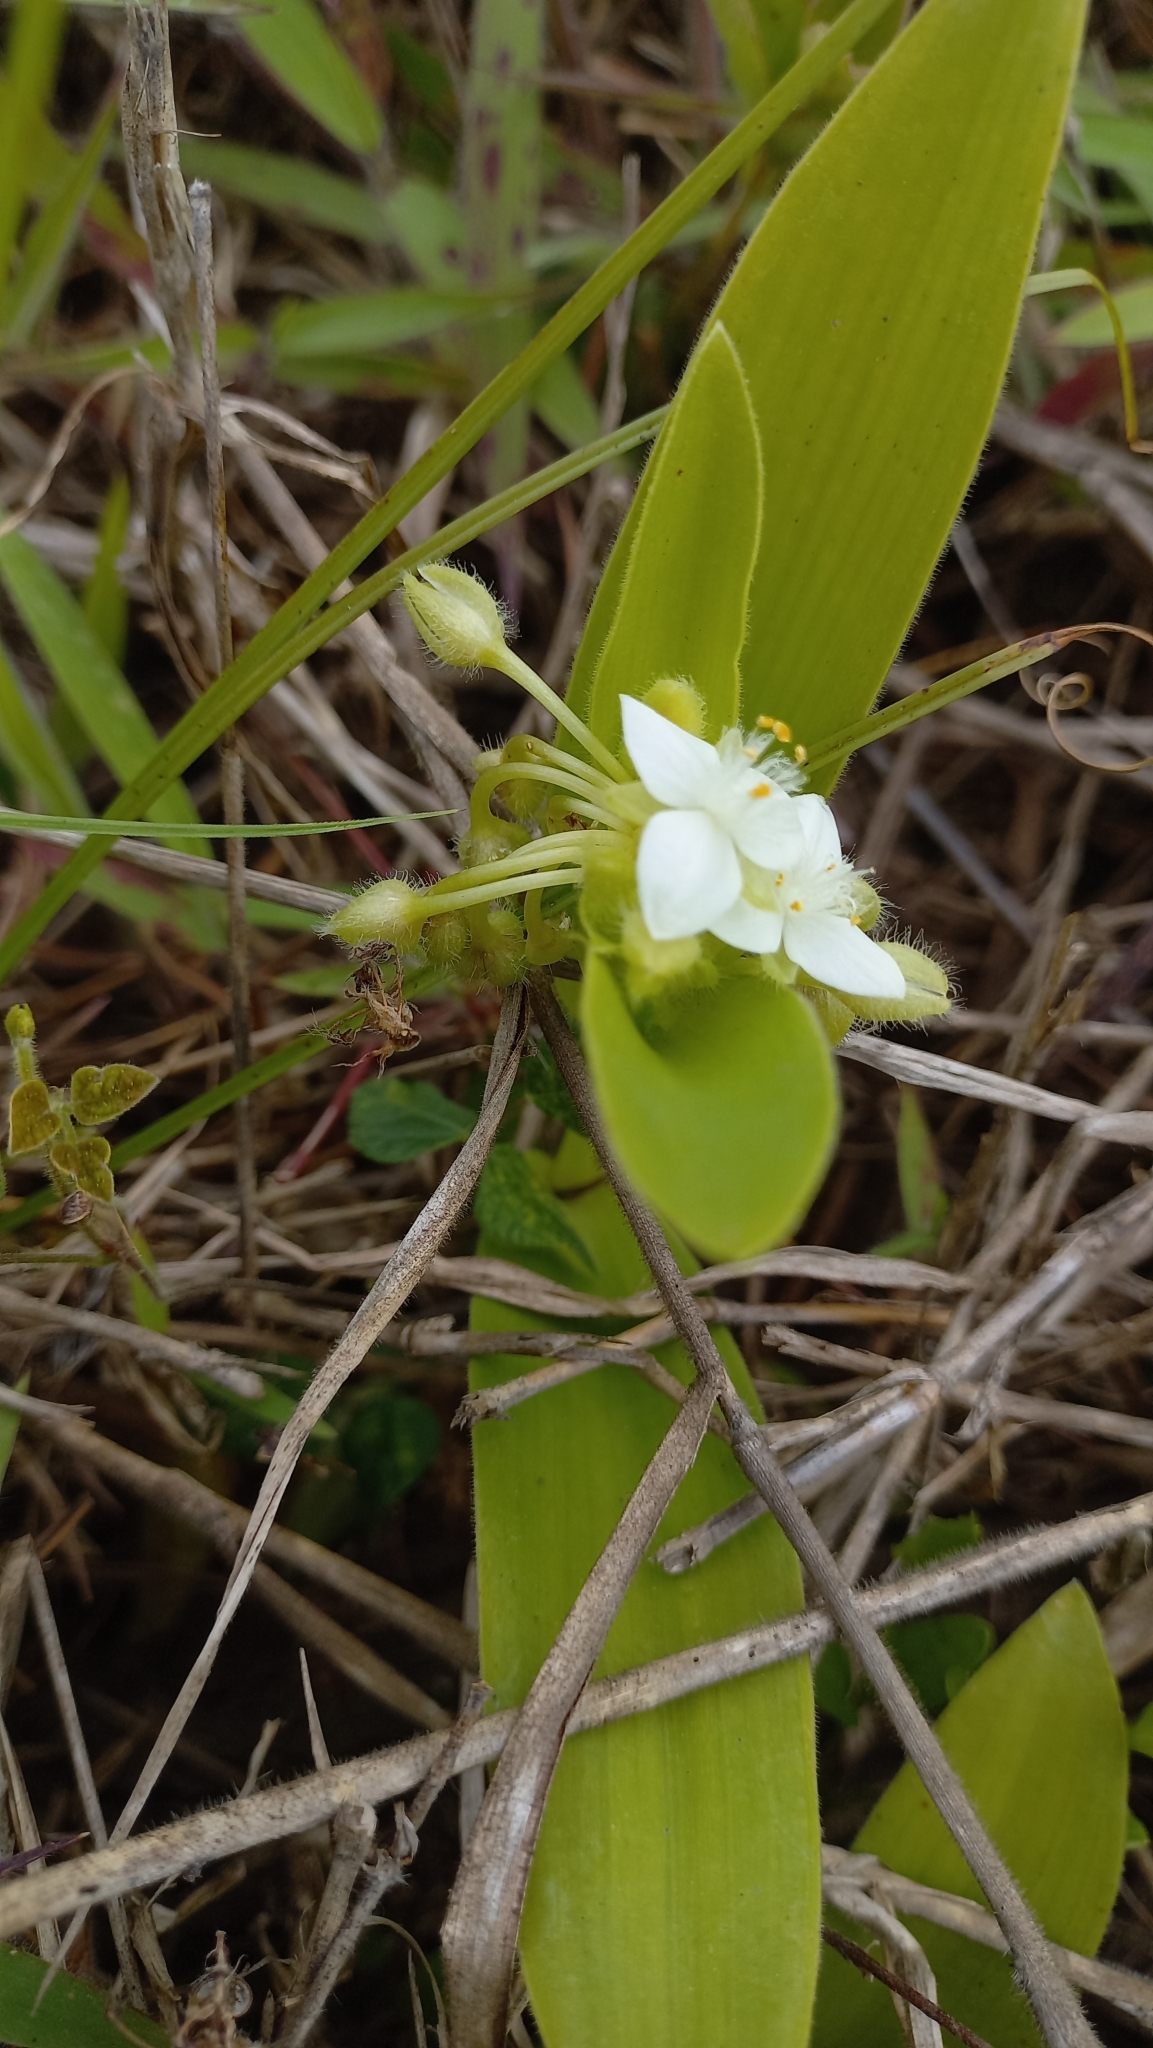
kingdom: Plantae
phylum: Tracheophyta
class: Liliopsida
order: Commelinales
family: Commelinaceae
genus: Tradescantia
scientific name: Tradescantia crassula
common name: Succulent spiderwort
